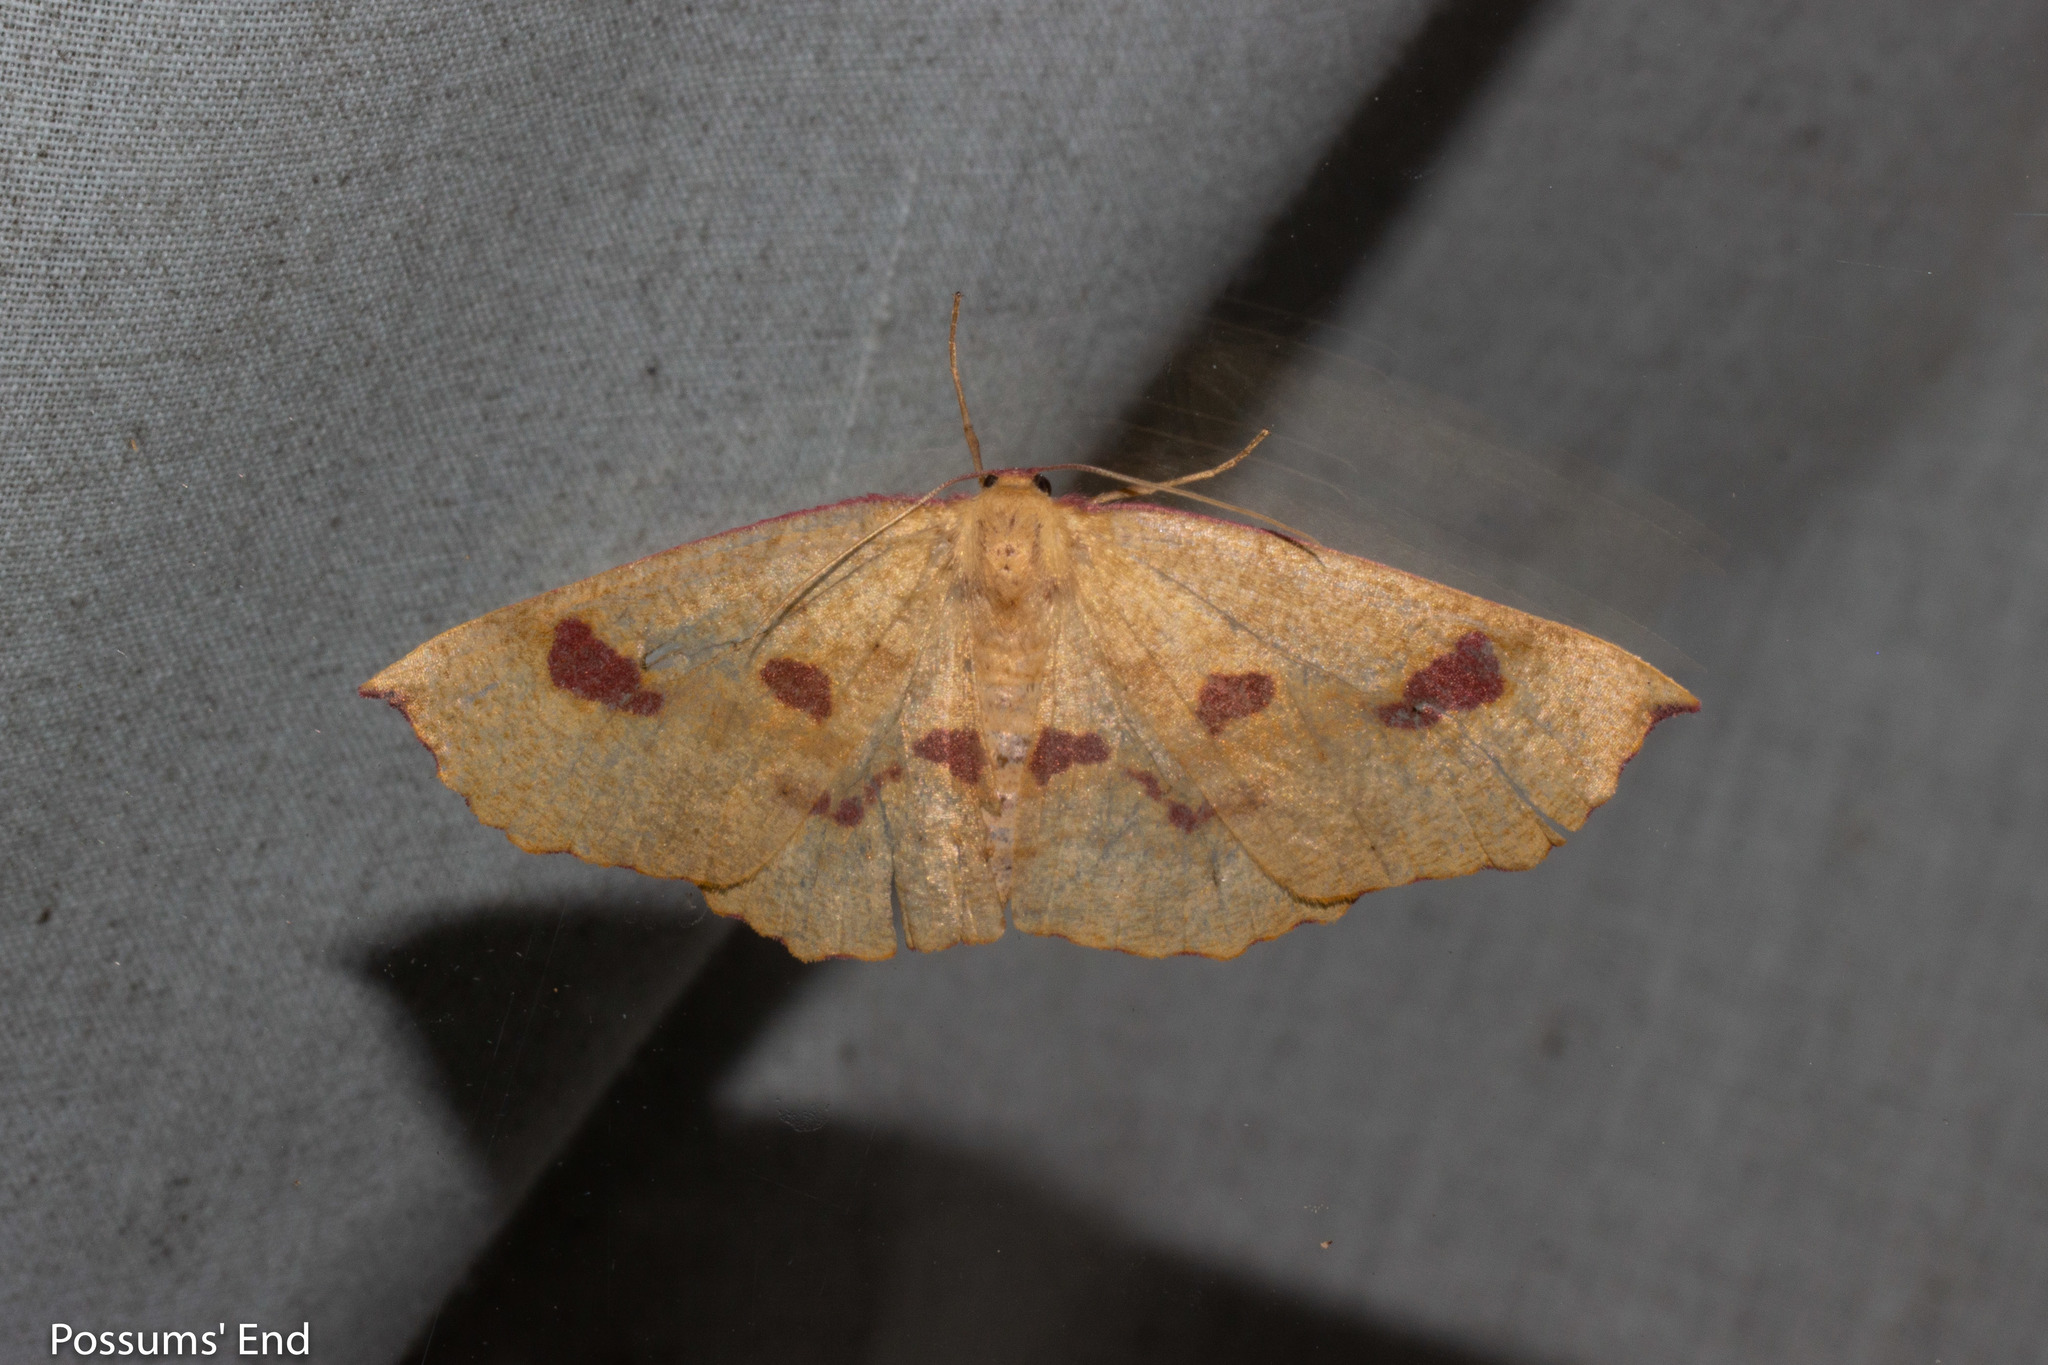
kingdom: Animalia
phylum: Arthropoda
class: Insecta
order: Lepidoptera
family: Geometridae
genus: Xyridacma
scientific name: Xyridacma alectoraria
